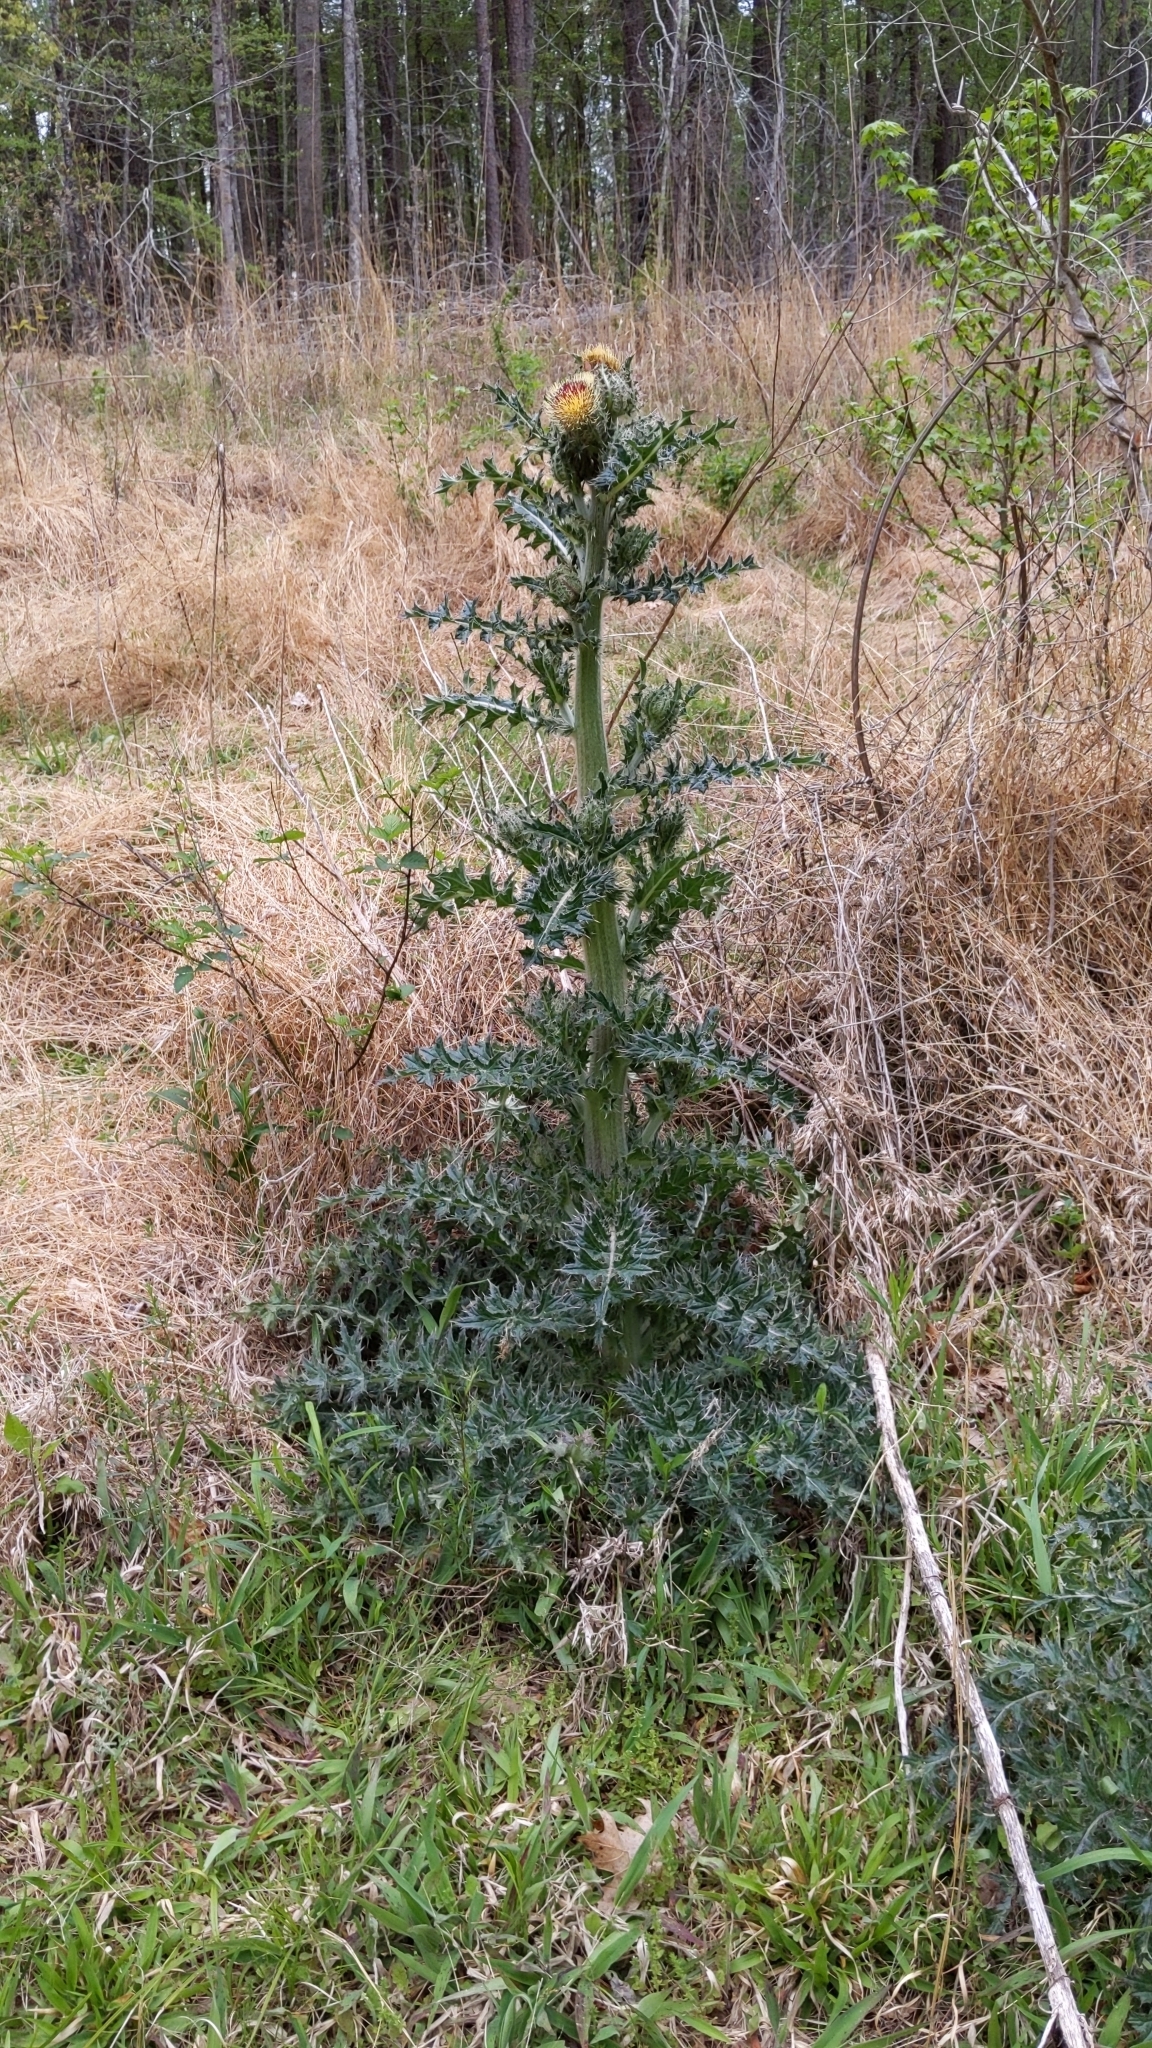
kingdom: Plantae
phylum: Tracheophyta
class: Magnoliopsida
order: Asterales
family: Asteraceae
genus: Cirsium
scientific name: Cirsium horridulum
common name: Bristly thistle
